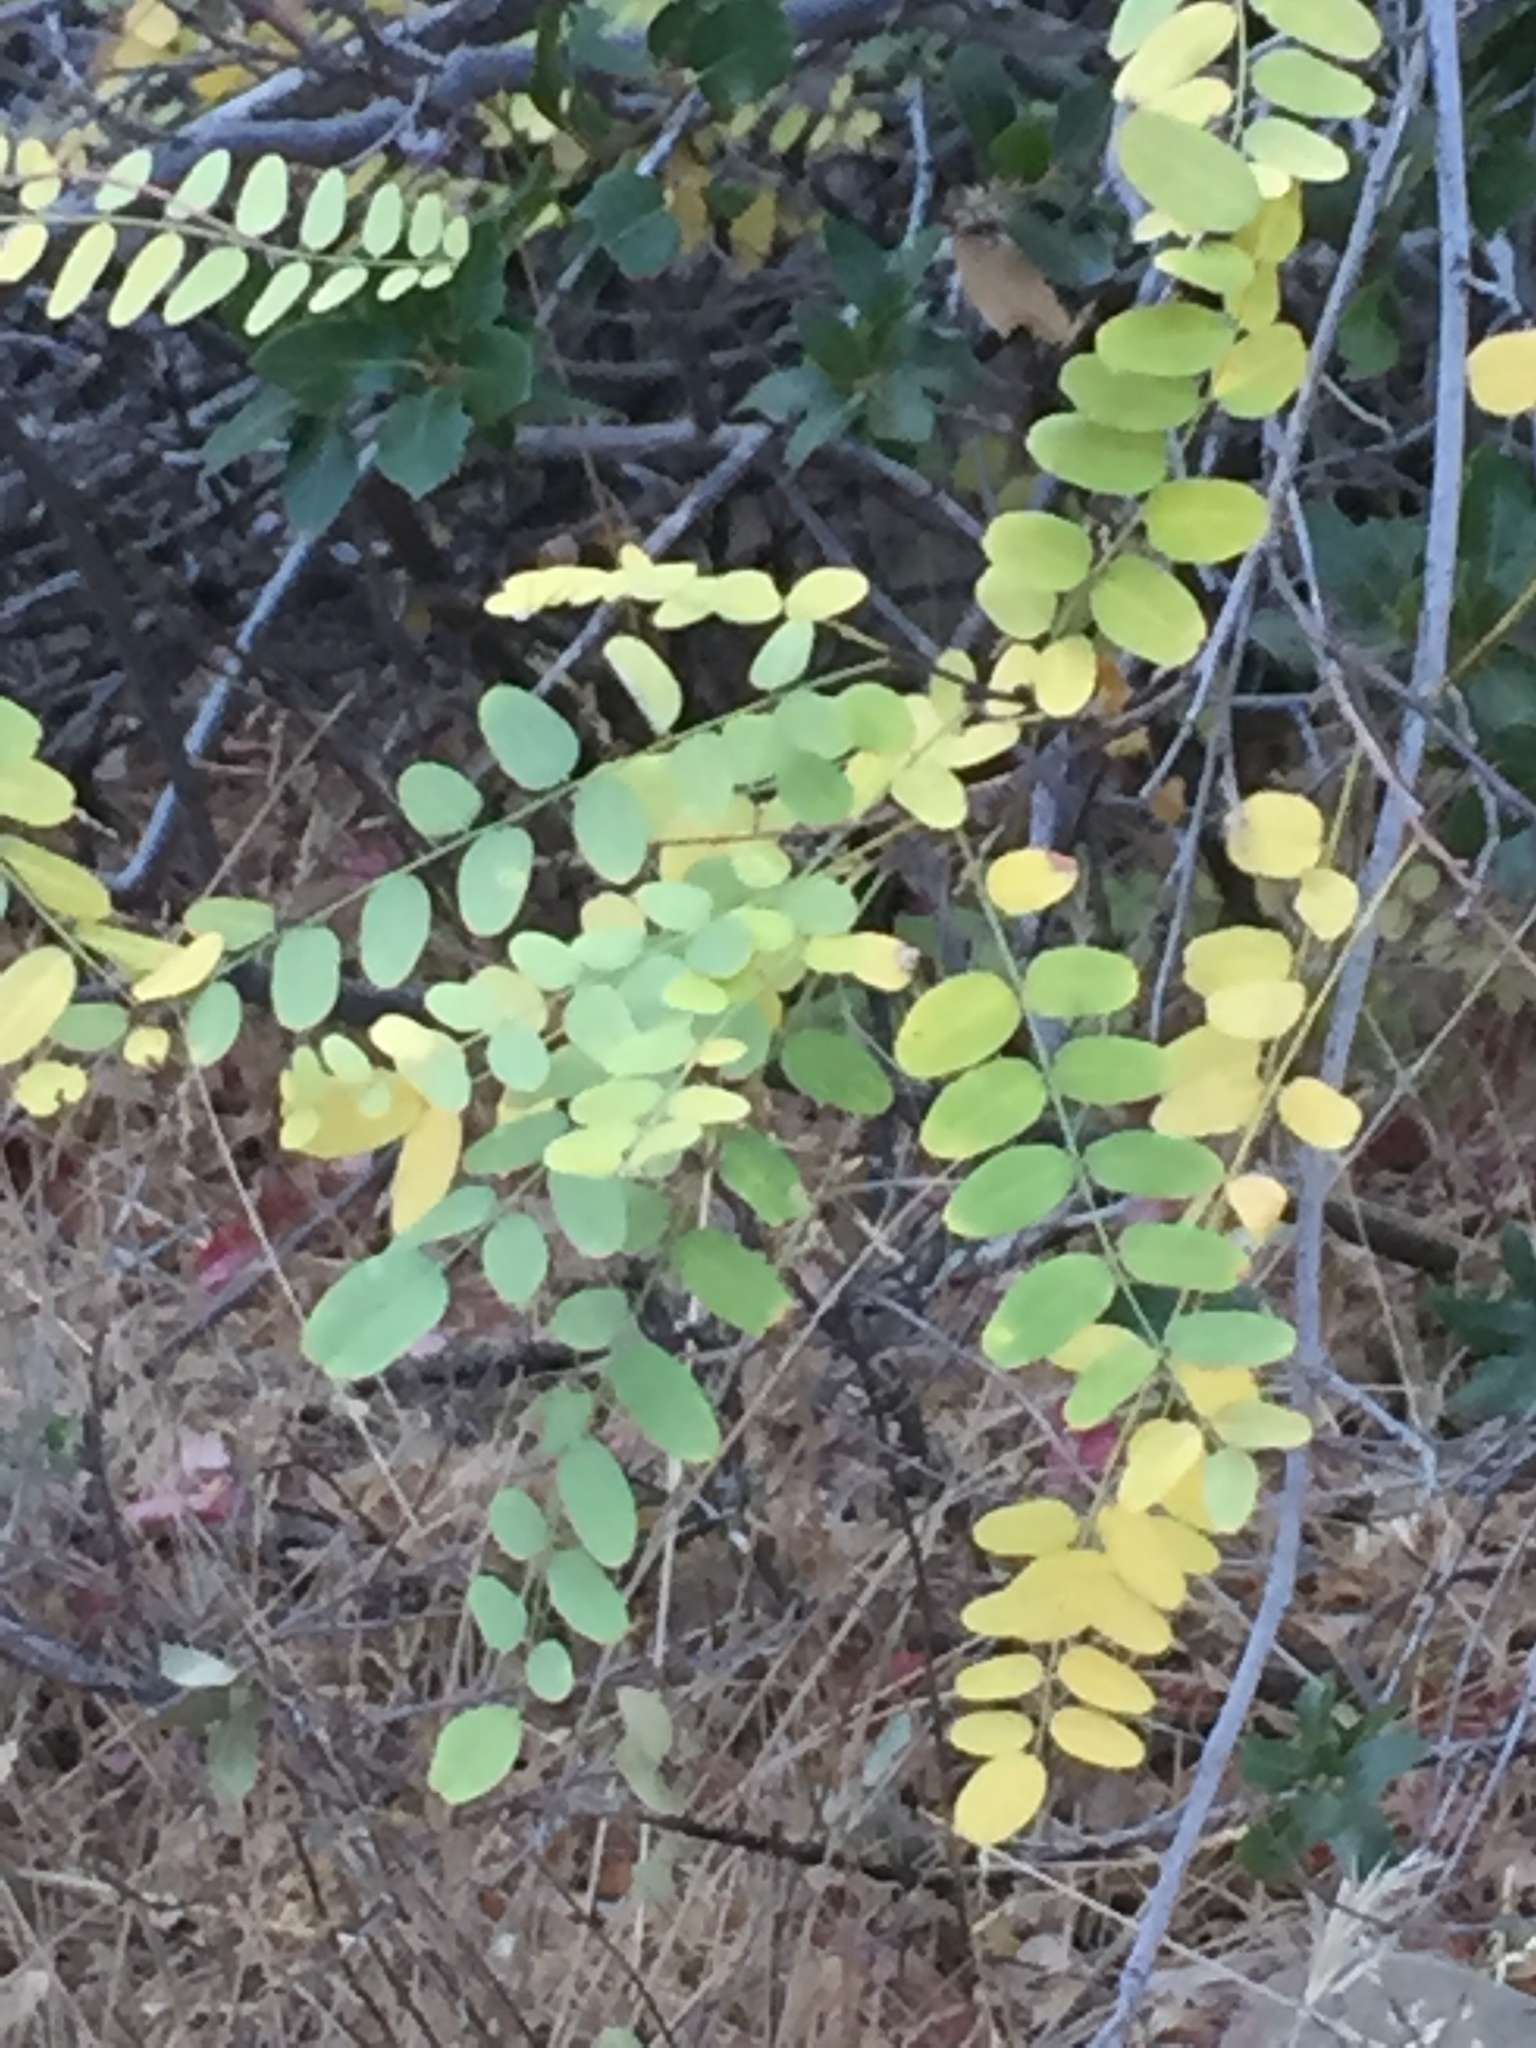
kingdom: Plantae
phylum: Tracheophyta
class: Magnoliopsida
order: Fabales
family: Fabaceae
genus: Amorpha
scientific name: Amorpha californica
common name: California indigobush
